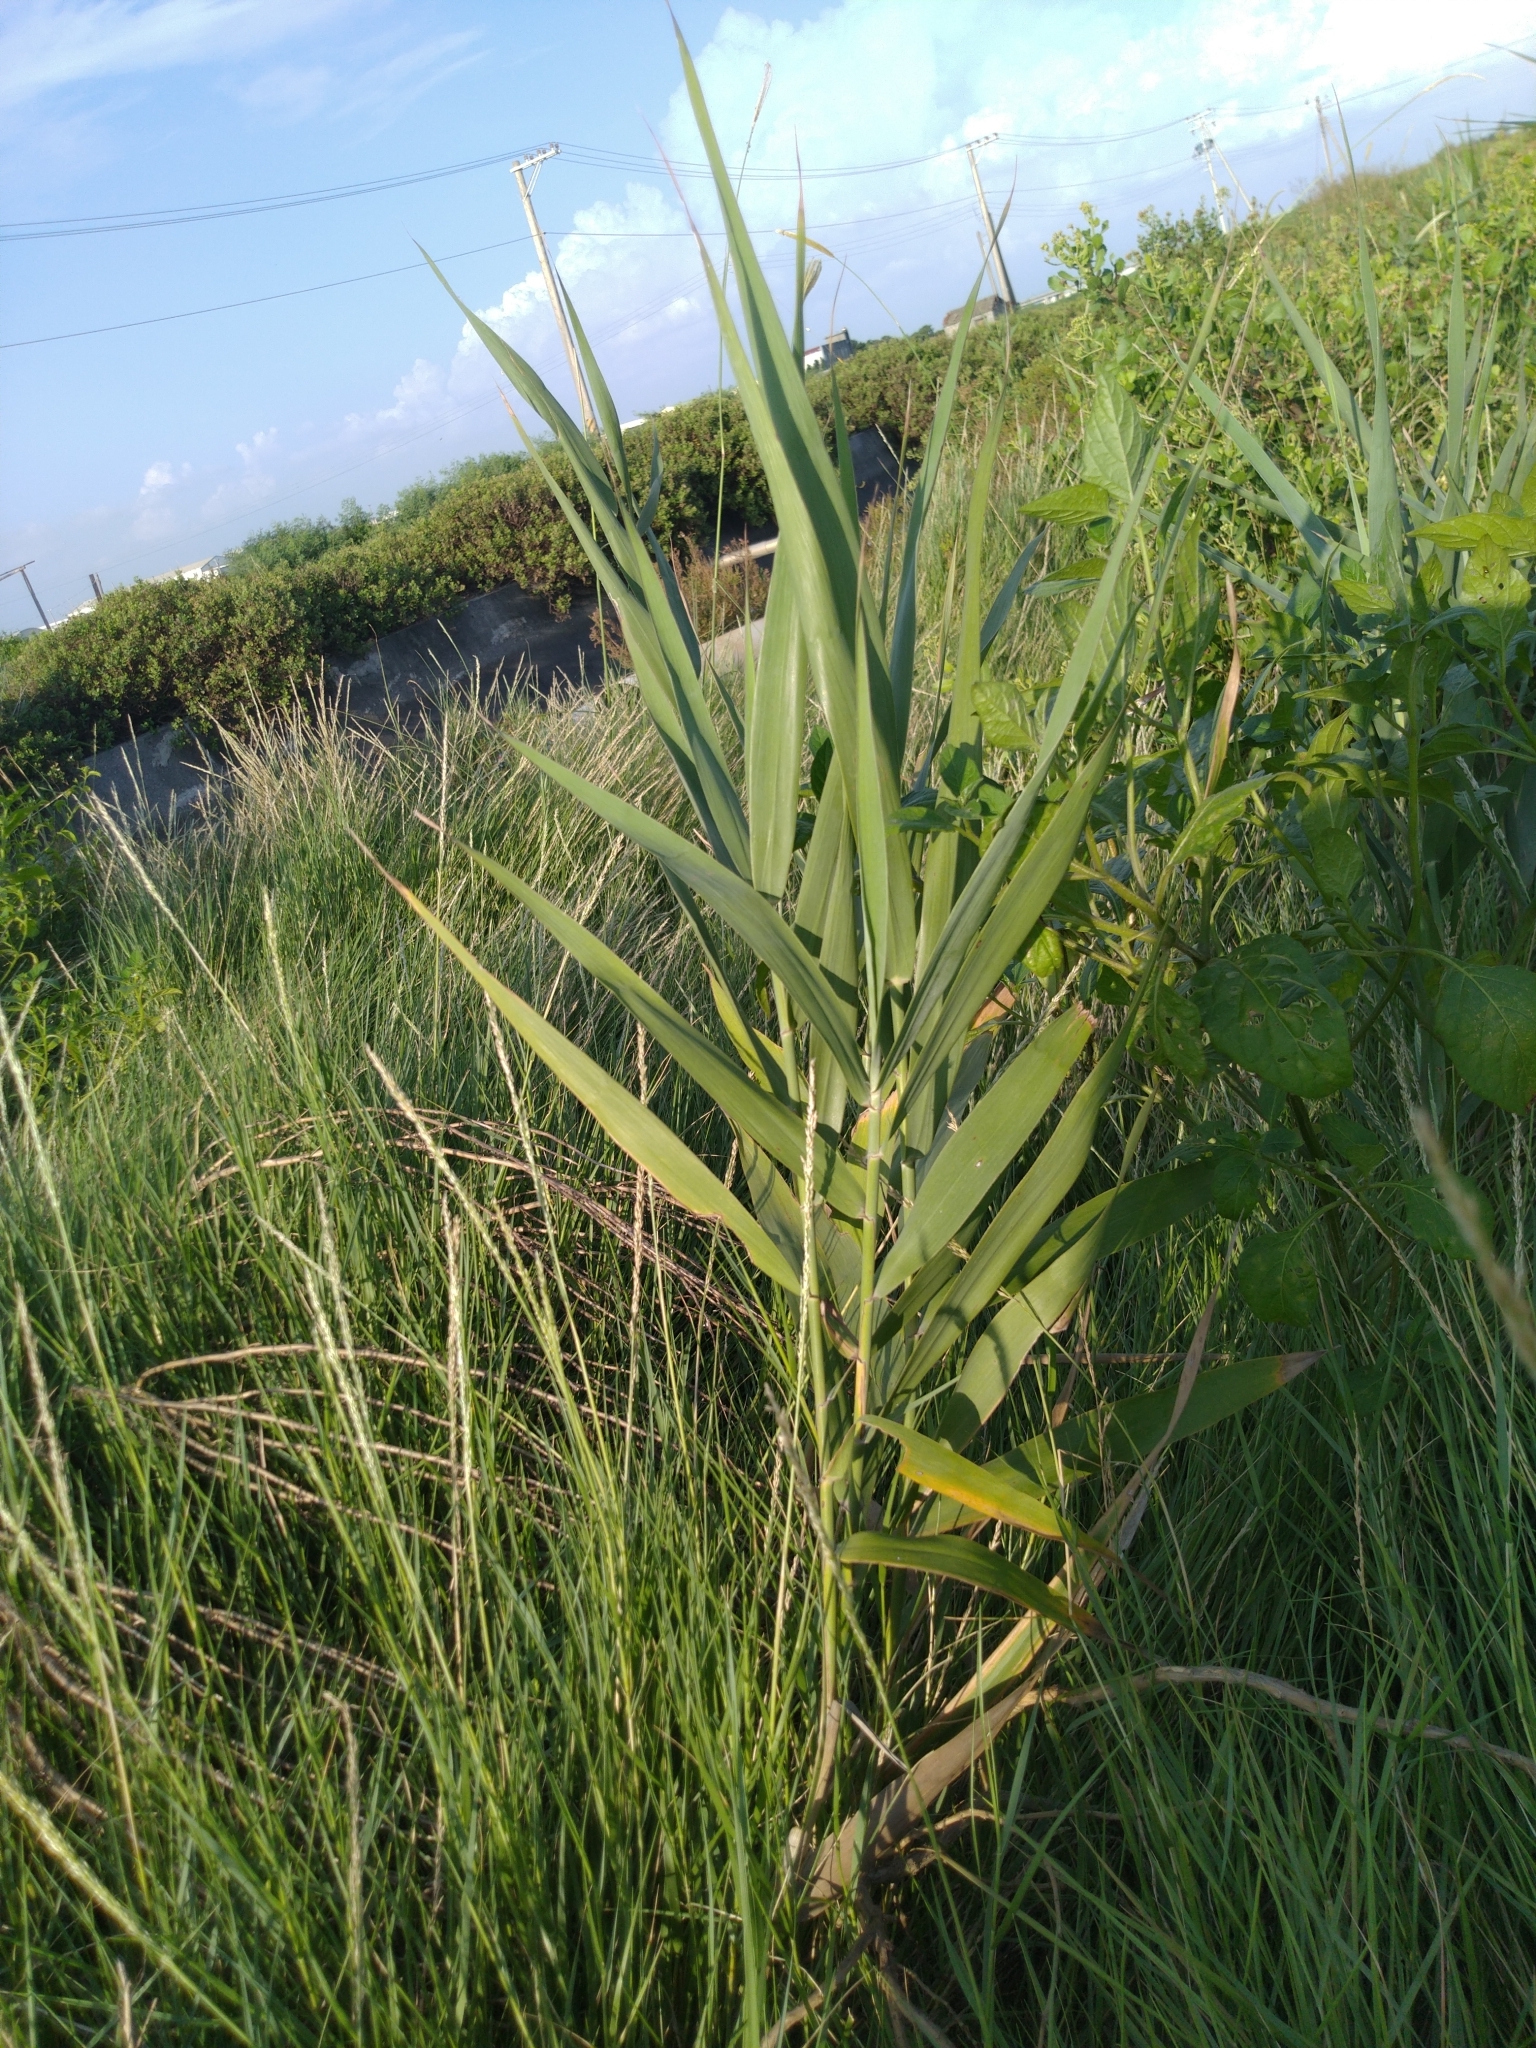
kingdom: Plantae
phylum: Tracheophyta
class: Liliopsida
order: Poales
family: Poaceae
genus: Phragmites
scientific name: Phragmites karka
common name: Tropical reed
